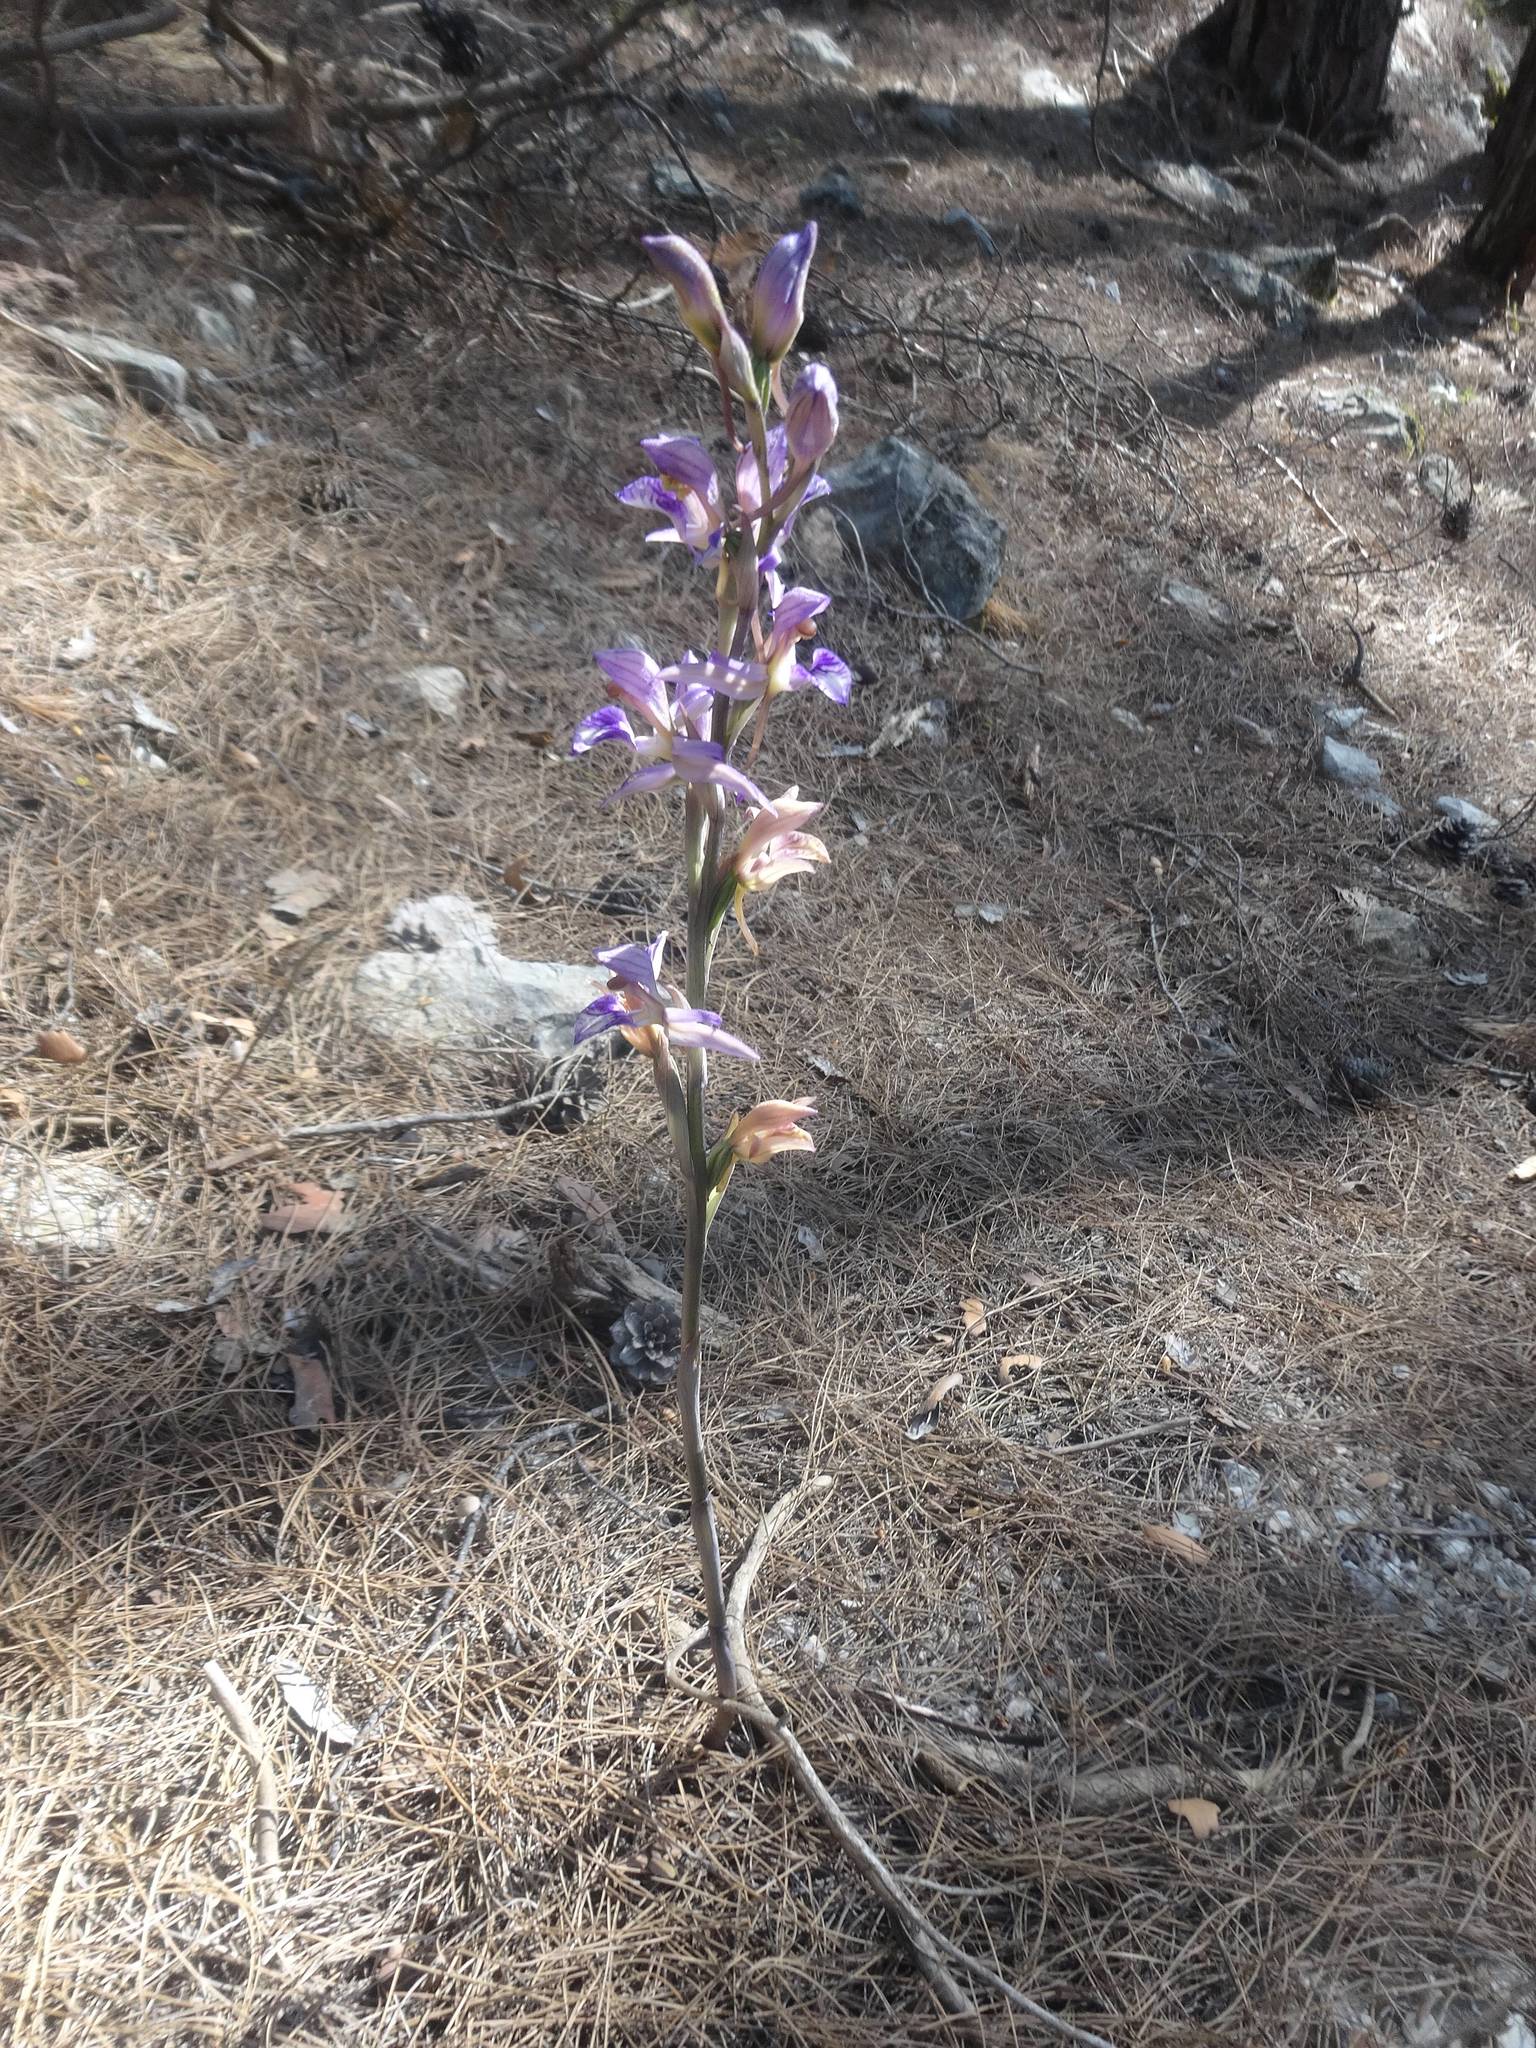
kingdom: Plantae
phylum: Tracheophyta
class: Liliopsida
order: Asparagales
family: Orchidaceae
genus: Limodorum
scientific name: Limodorum abortivum
